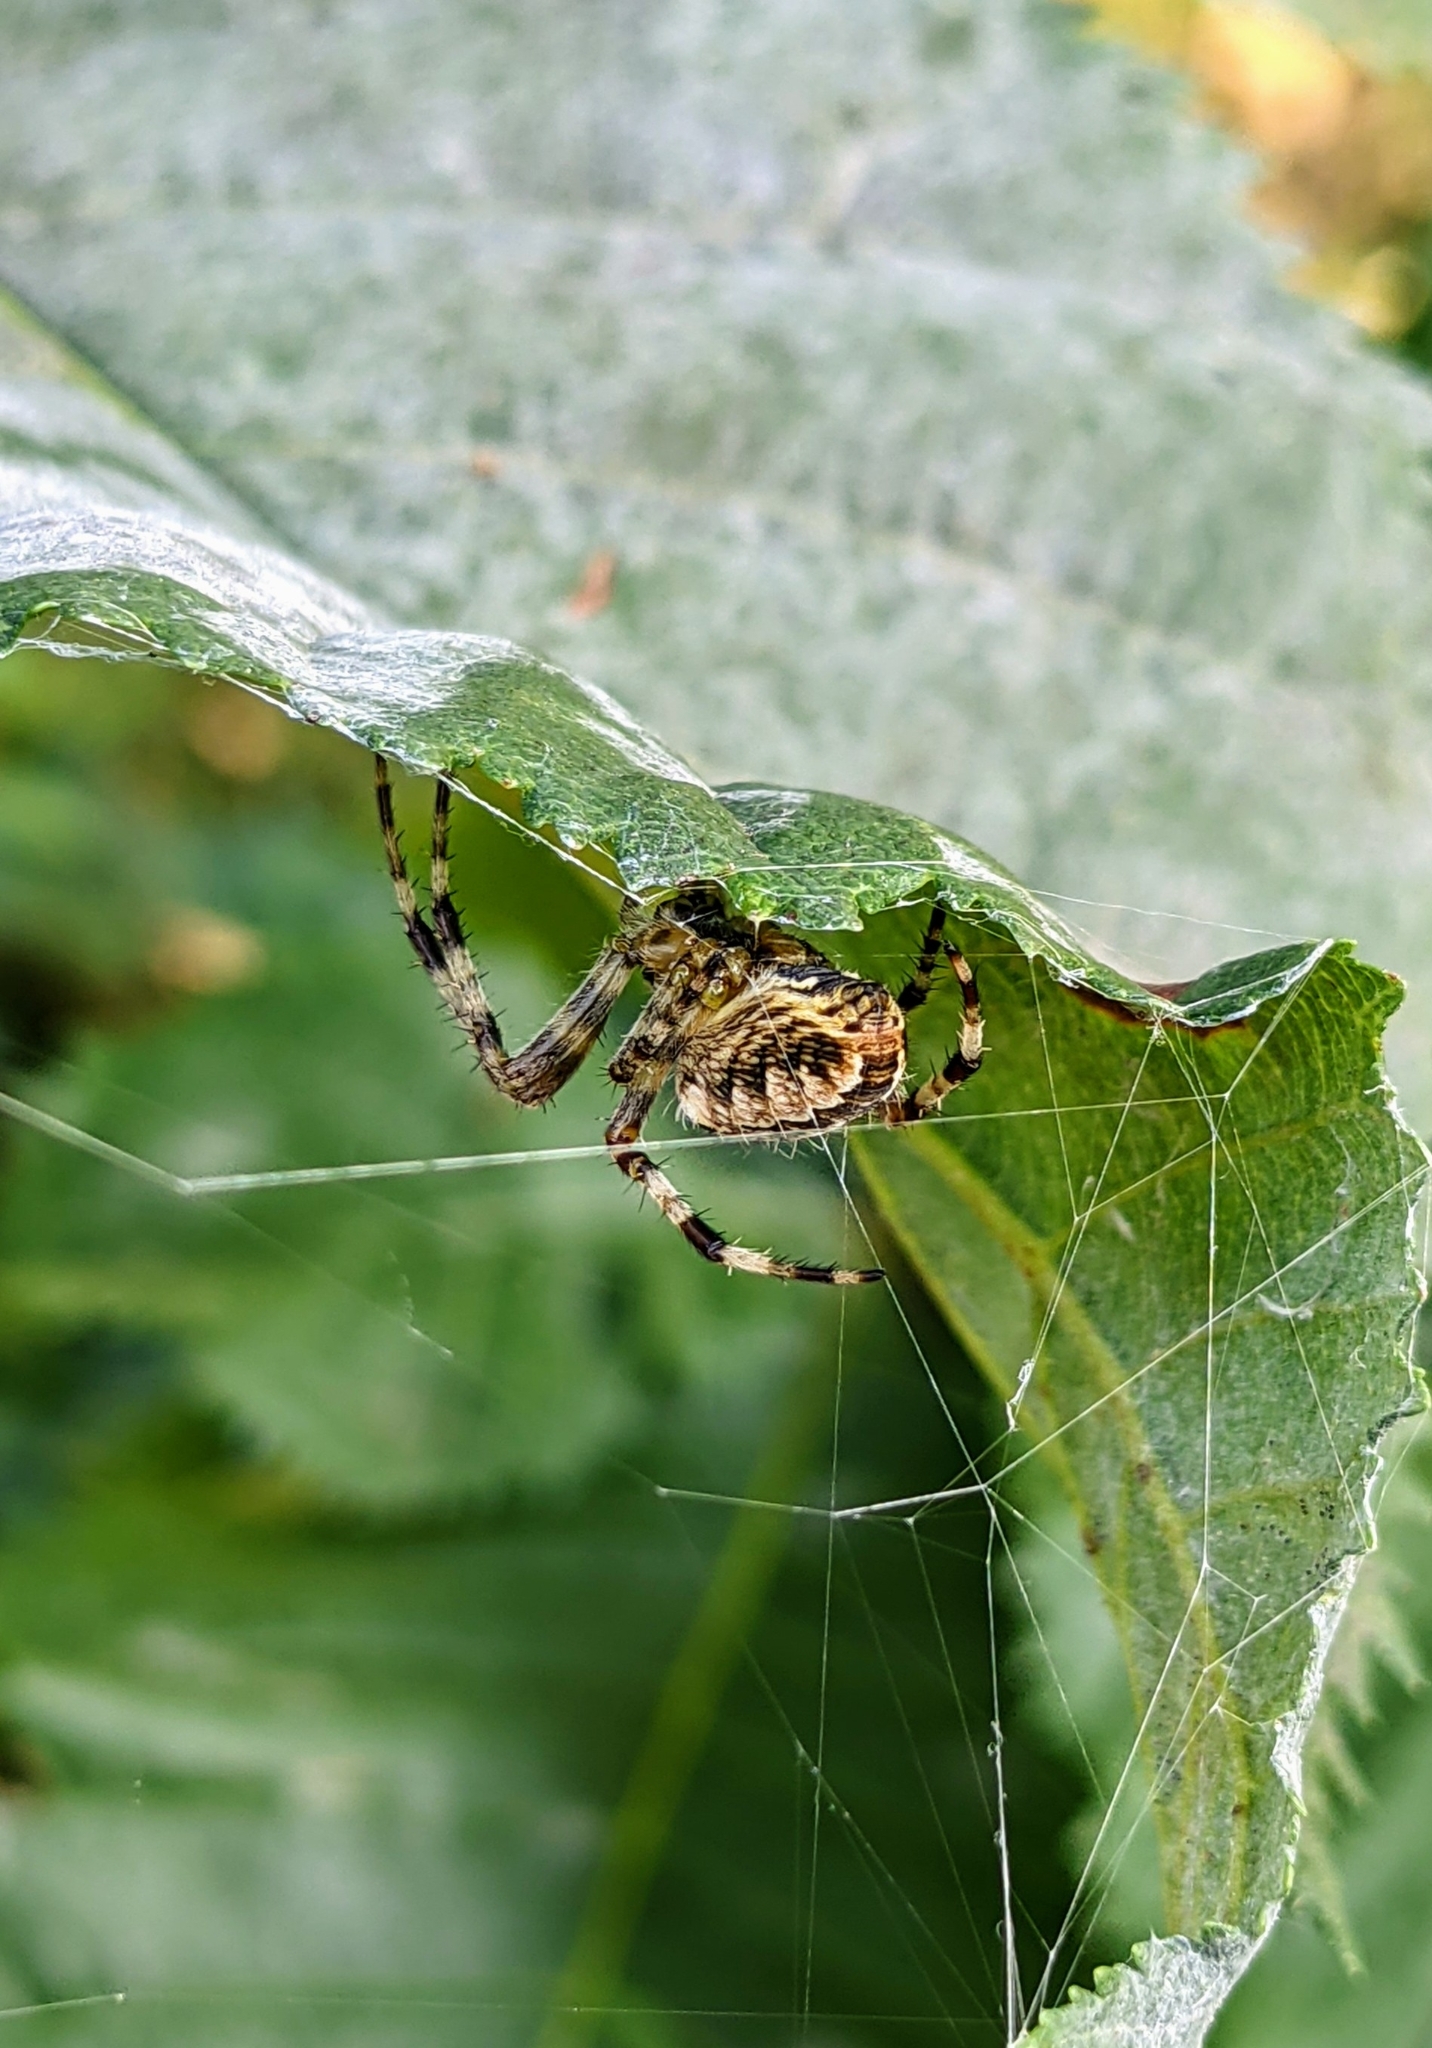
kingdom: Animalia
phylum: Arthropoda
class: Arachnida
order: Araneae
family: Araneidae
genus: Araneus
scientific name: Araneus diadematus
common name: Cross orbweaver
